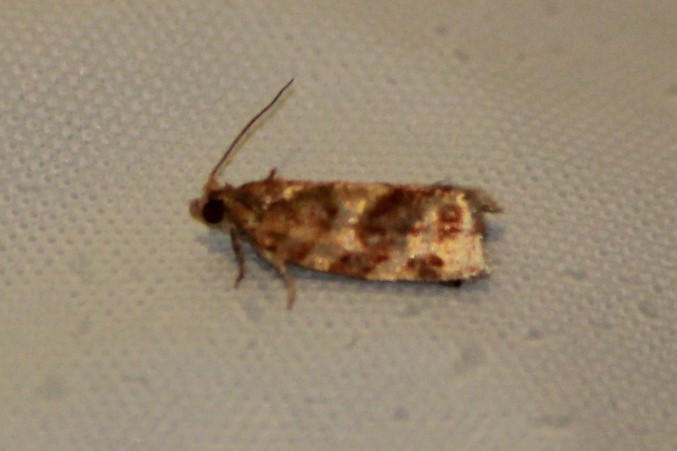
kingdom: Animalia
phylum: Arthropoda
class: Insecta
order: Lepidoptera
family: Tortricidae
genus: Argyrotaenia
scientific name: Argyrotaenia pinatubana
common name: Pine tube moth
